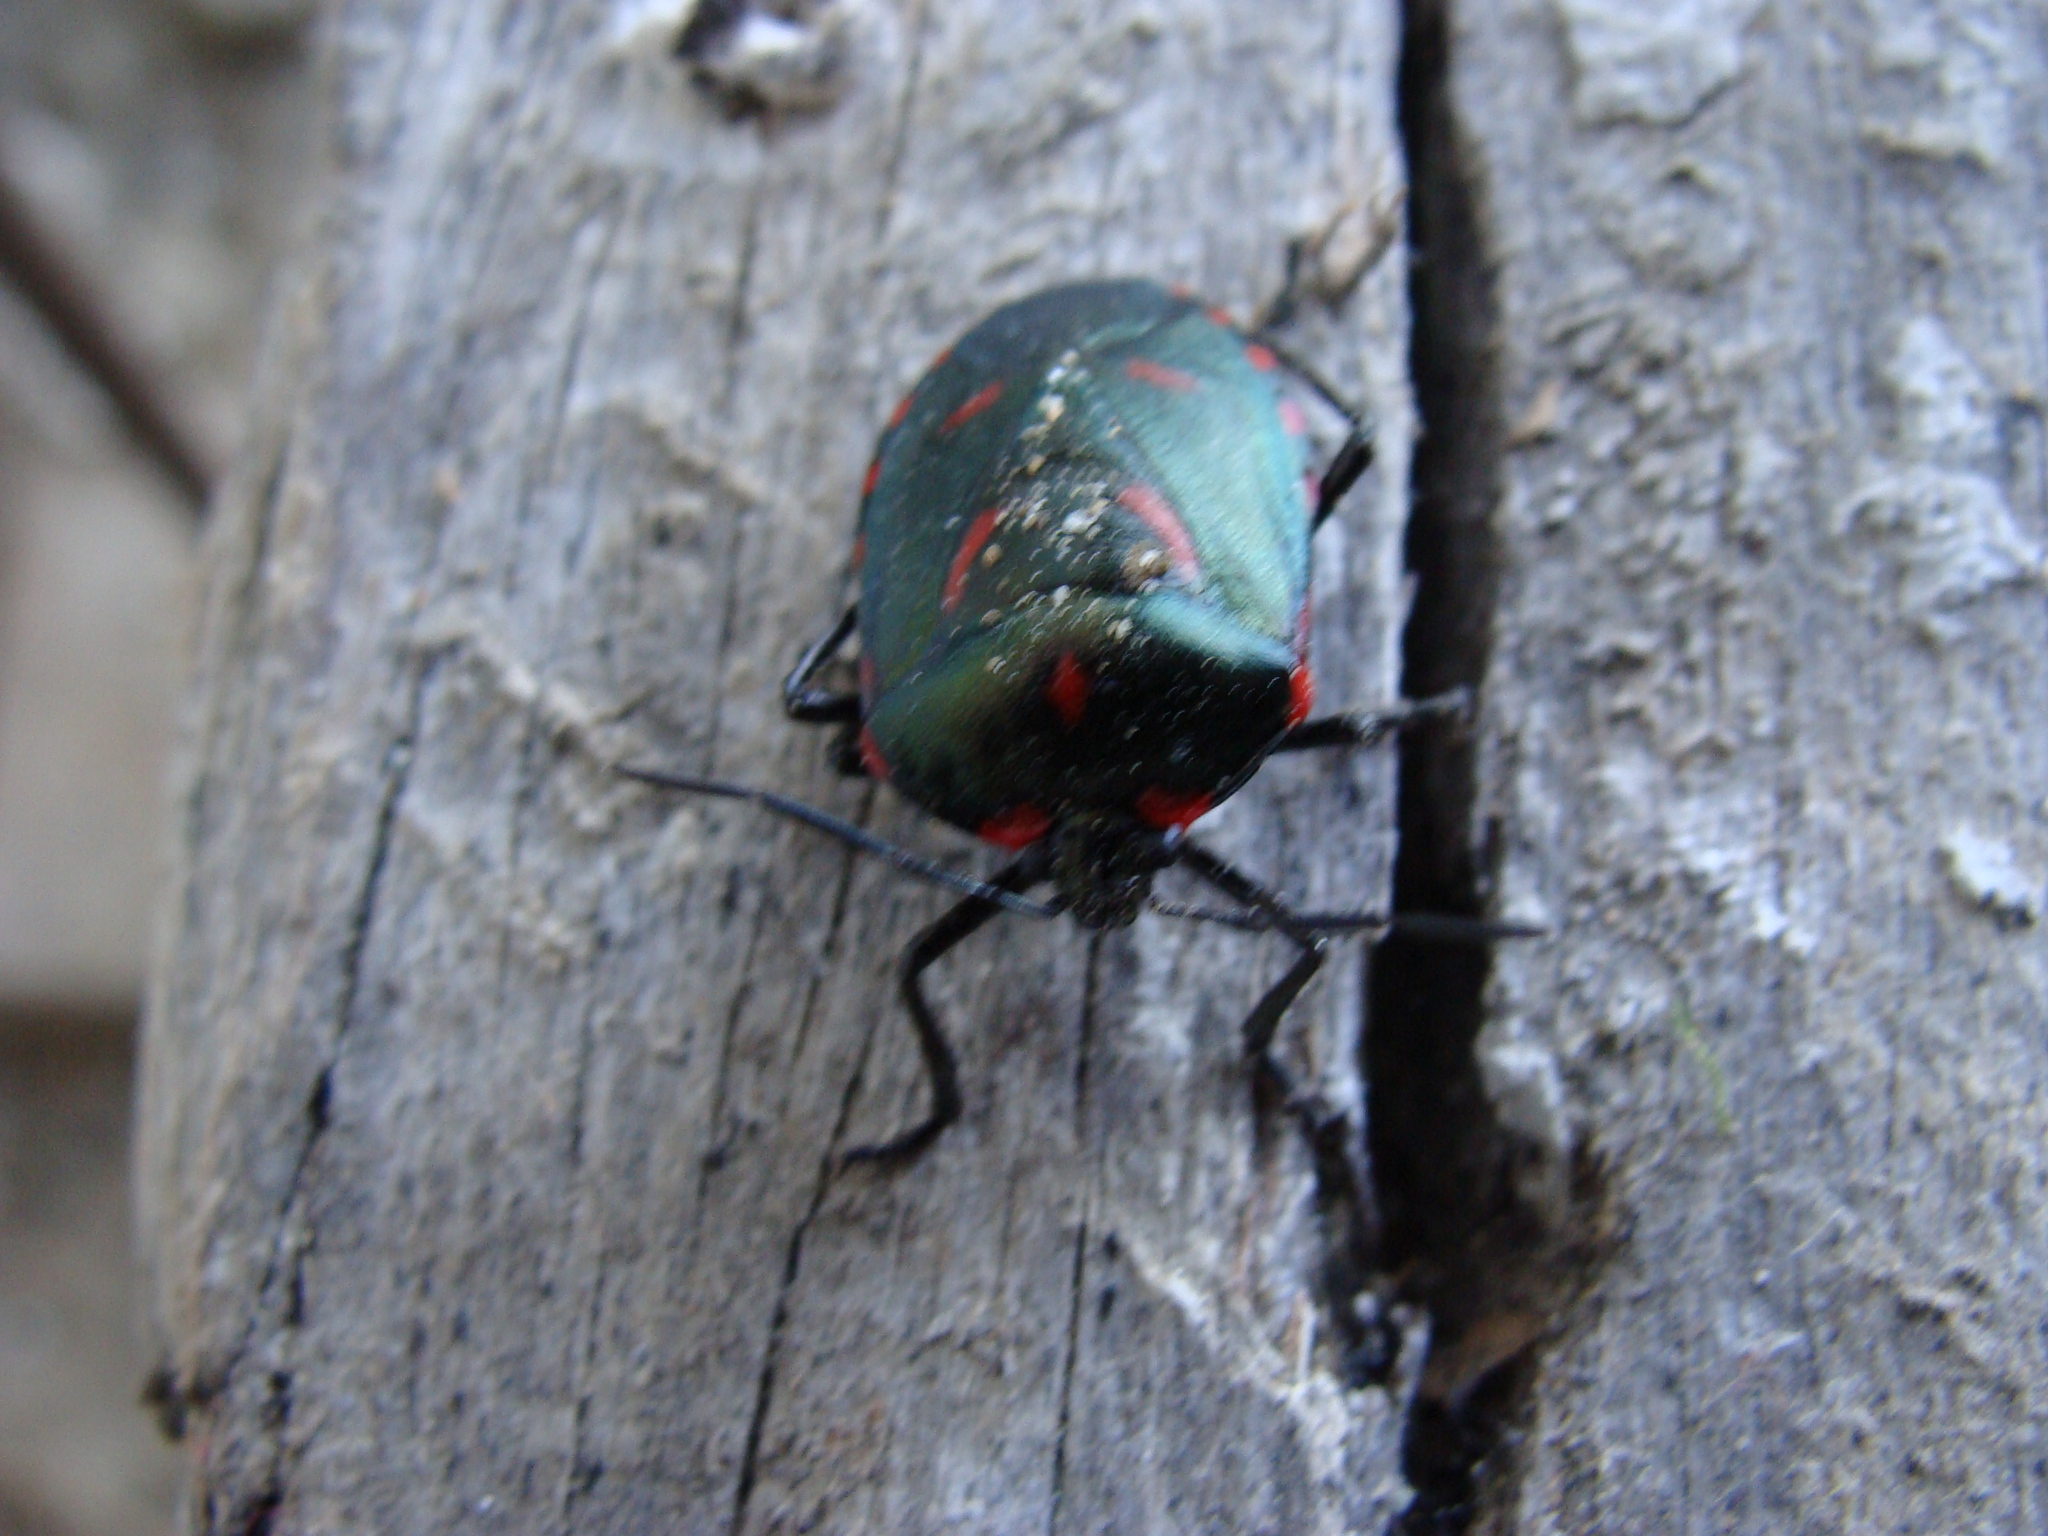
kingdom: Animalia
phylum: Arthropoda
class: Insecta
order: Hemiptera
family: Pentatomidae
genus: Rhyssocephala
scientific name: Rhyssocephala
